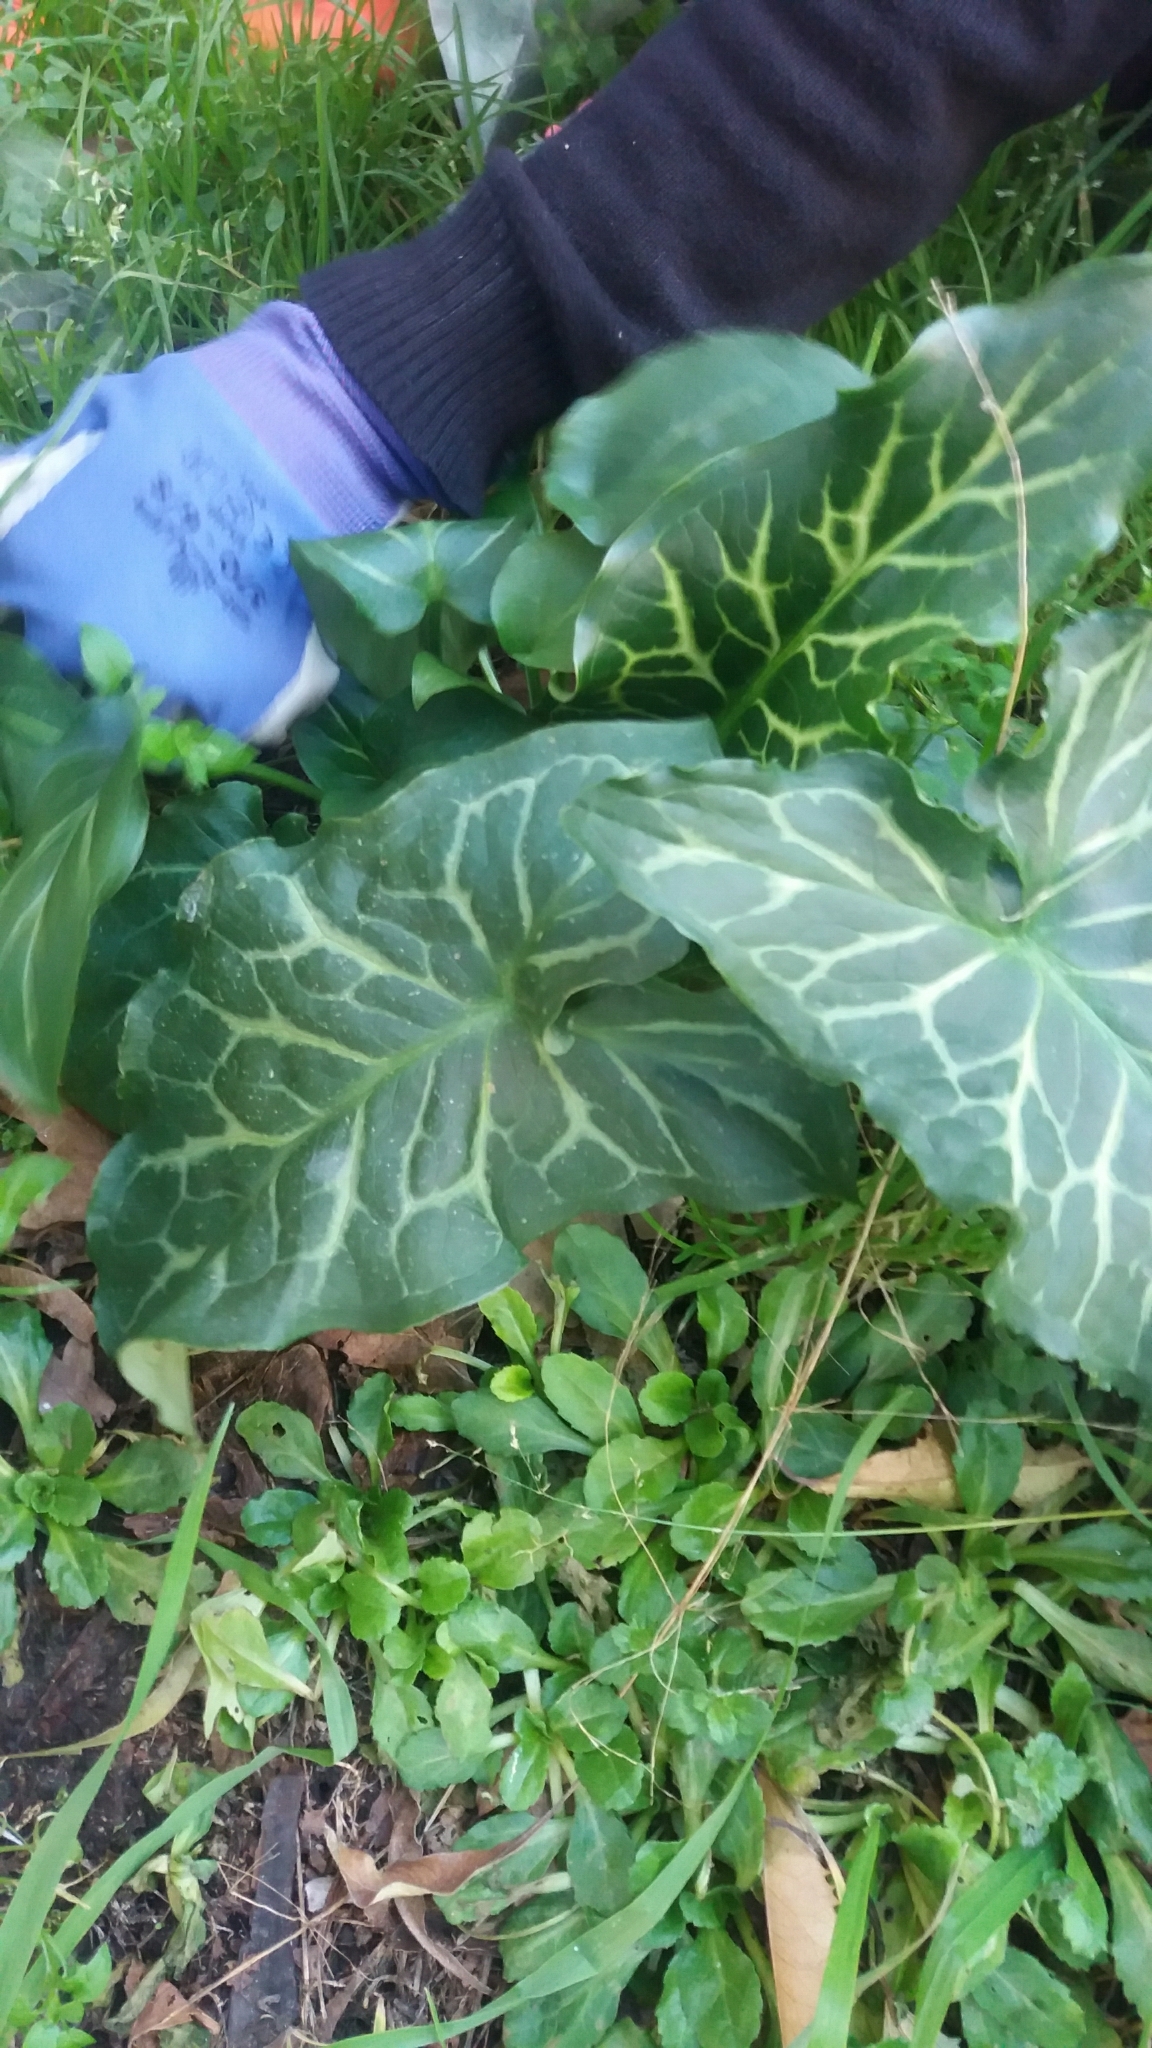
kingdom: Plantae
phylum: Tracheophyta
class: Liliopsida
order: Alismatales
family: Araceae
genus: Arum
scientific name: Arum italicum
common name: Italian lords-and-ladies
